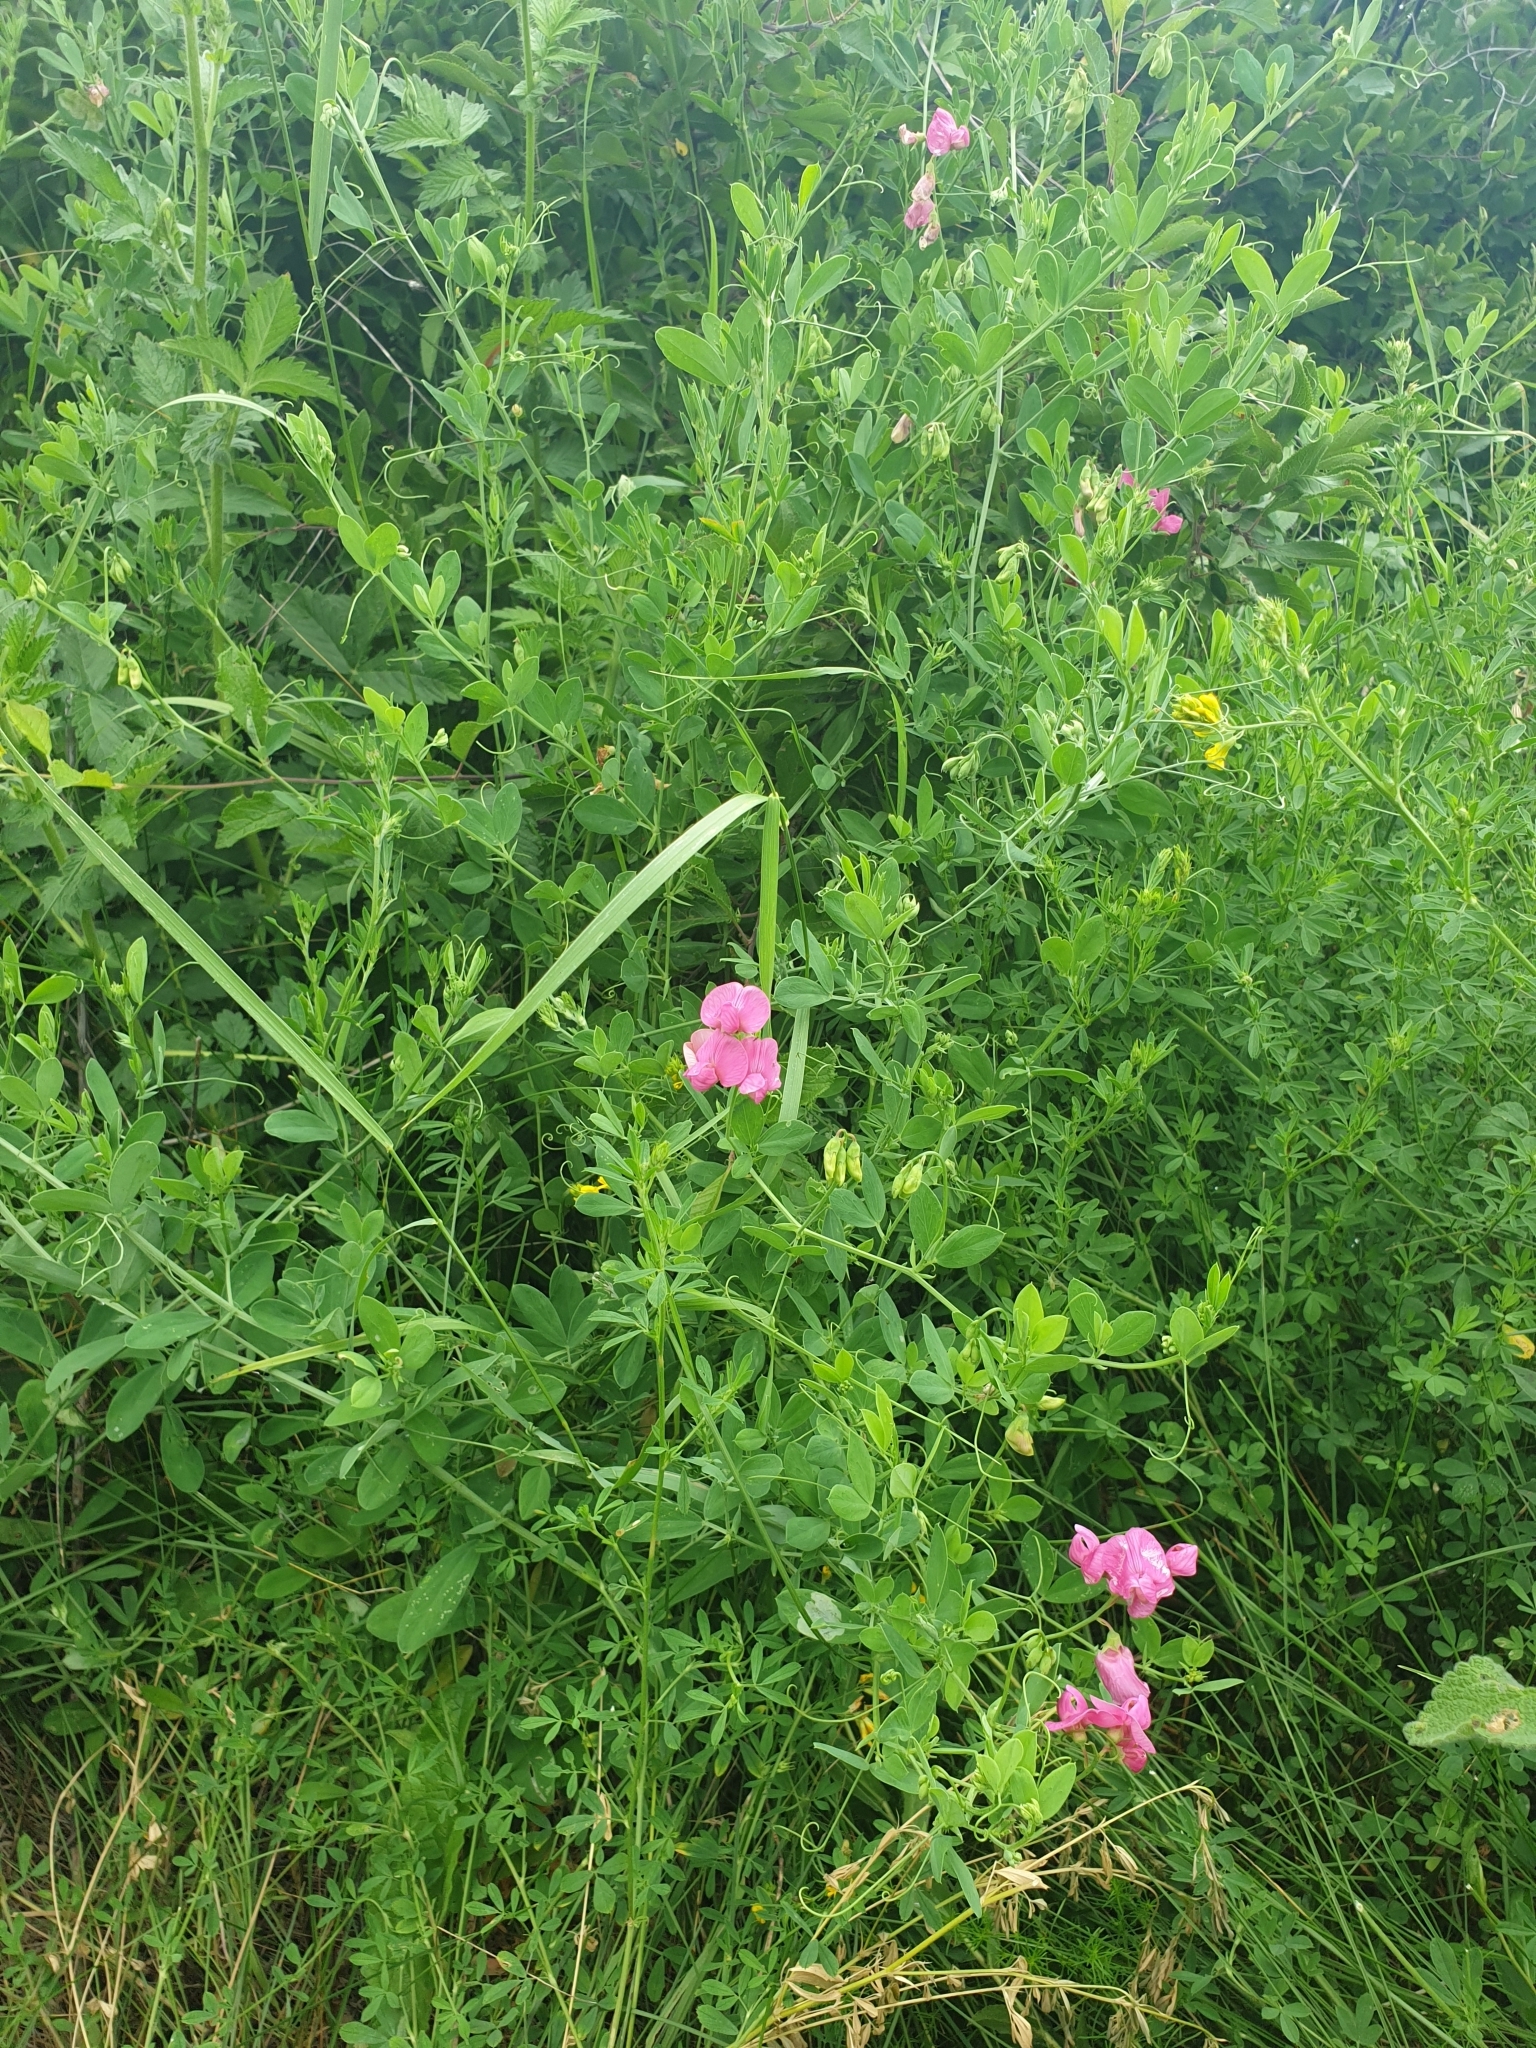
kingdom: Plantae
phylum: Tracheophyta
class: Magnoliopsida
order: Fabales
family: Fabaceae
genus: Lathyrus
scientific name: Lathyrus tuberosus
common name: Tuberous pea
